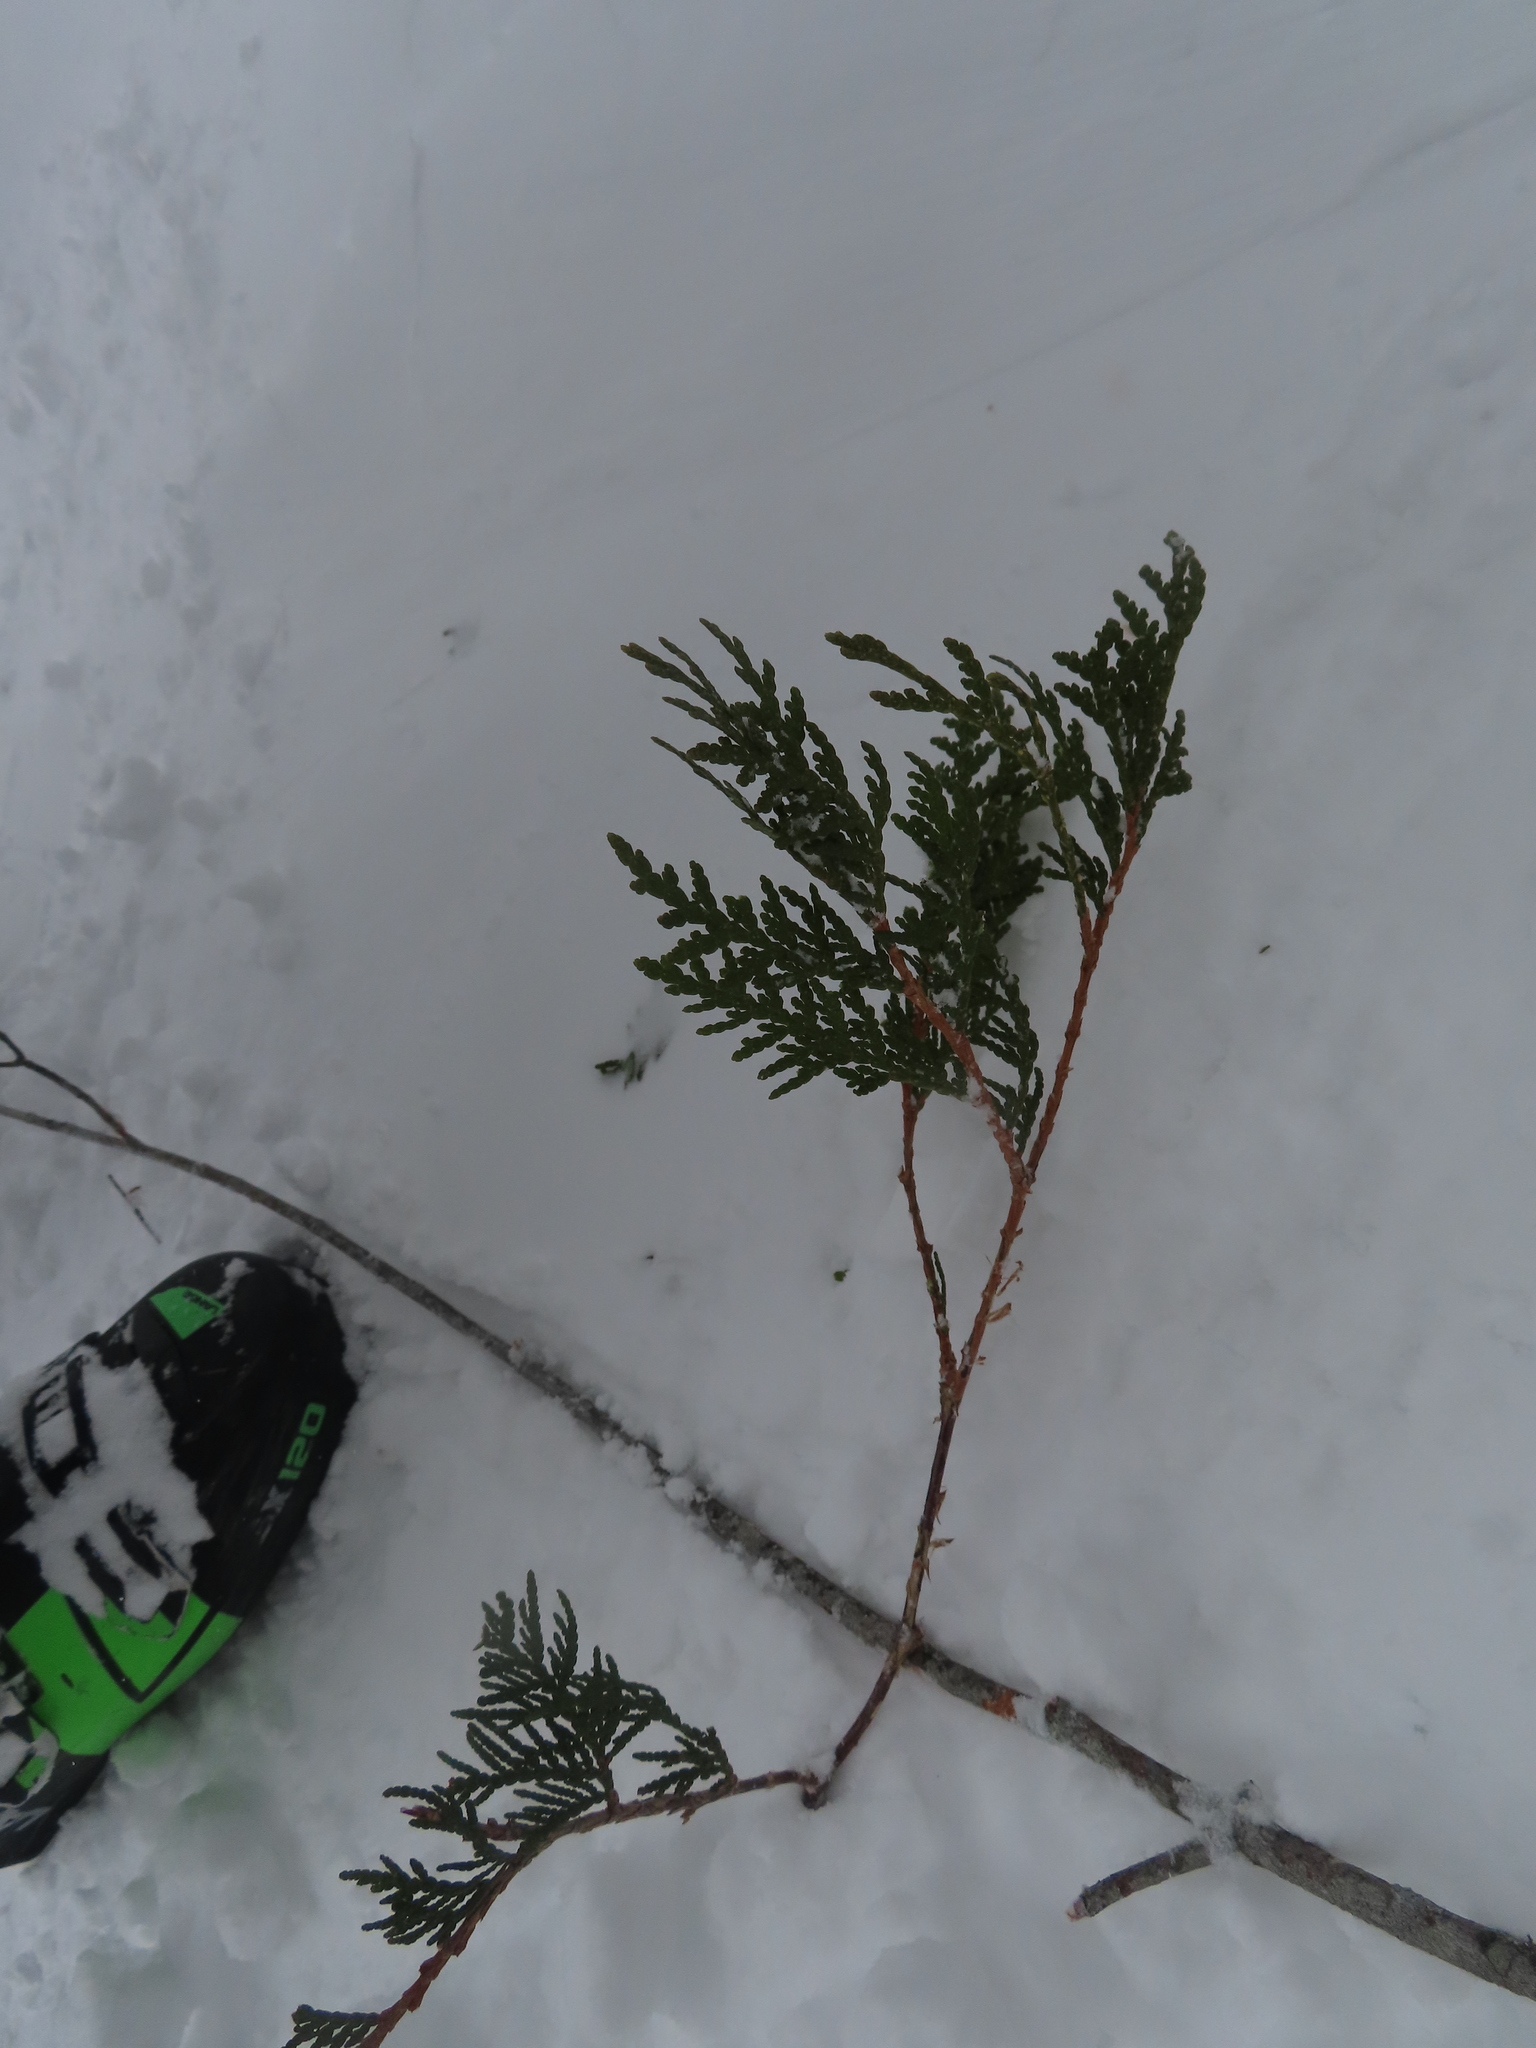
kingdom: Plantae
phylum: Tracheophyta
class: Pinopsida
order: Pinales
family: Cupressaceae
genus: Thuja
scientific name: Thuja occidentalis
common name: Northern white-cedar
